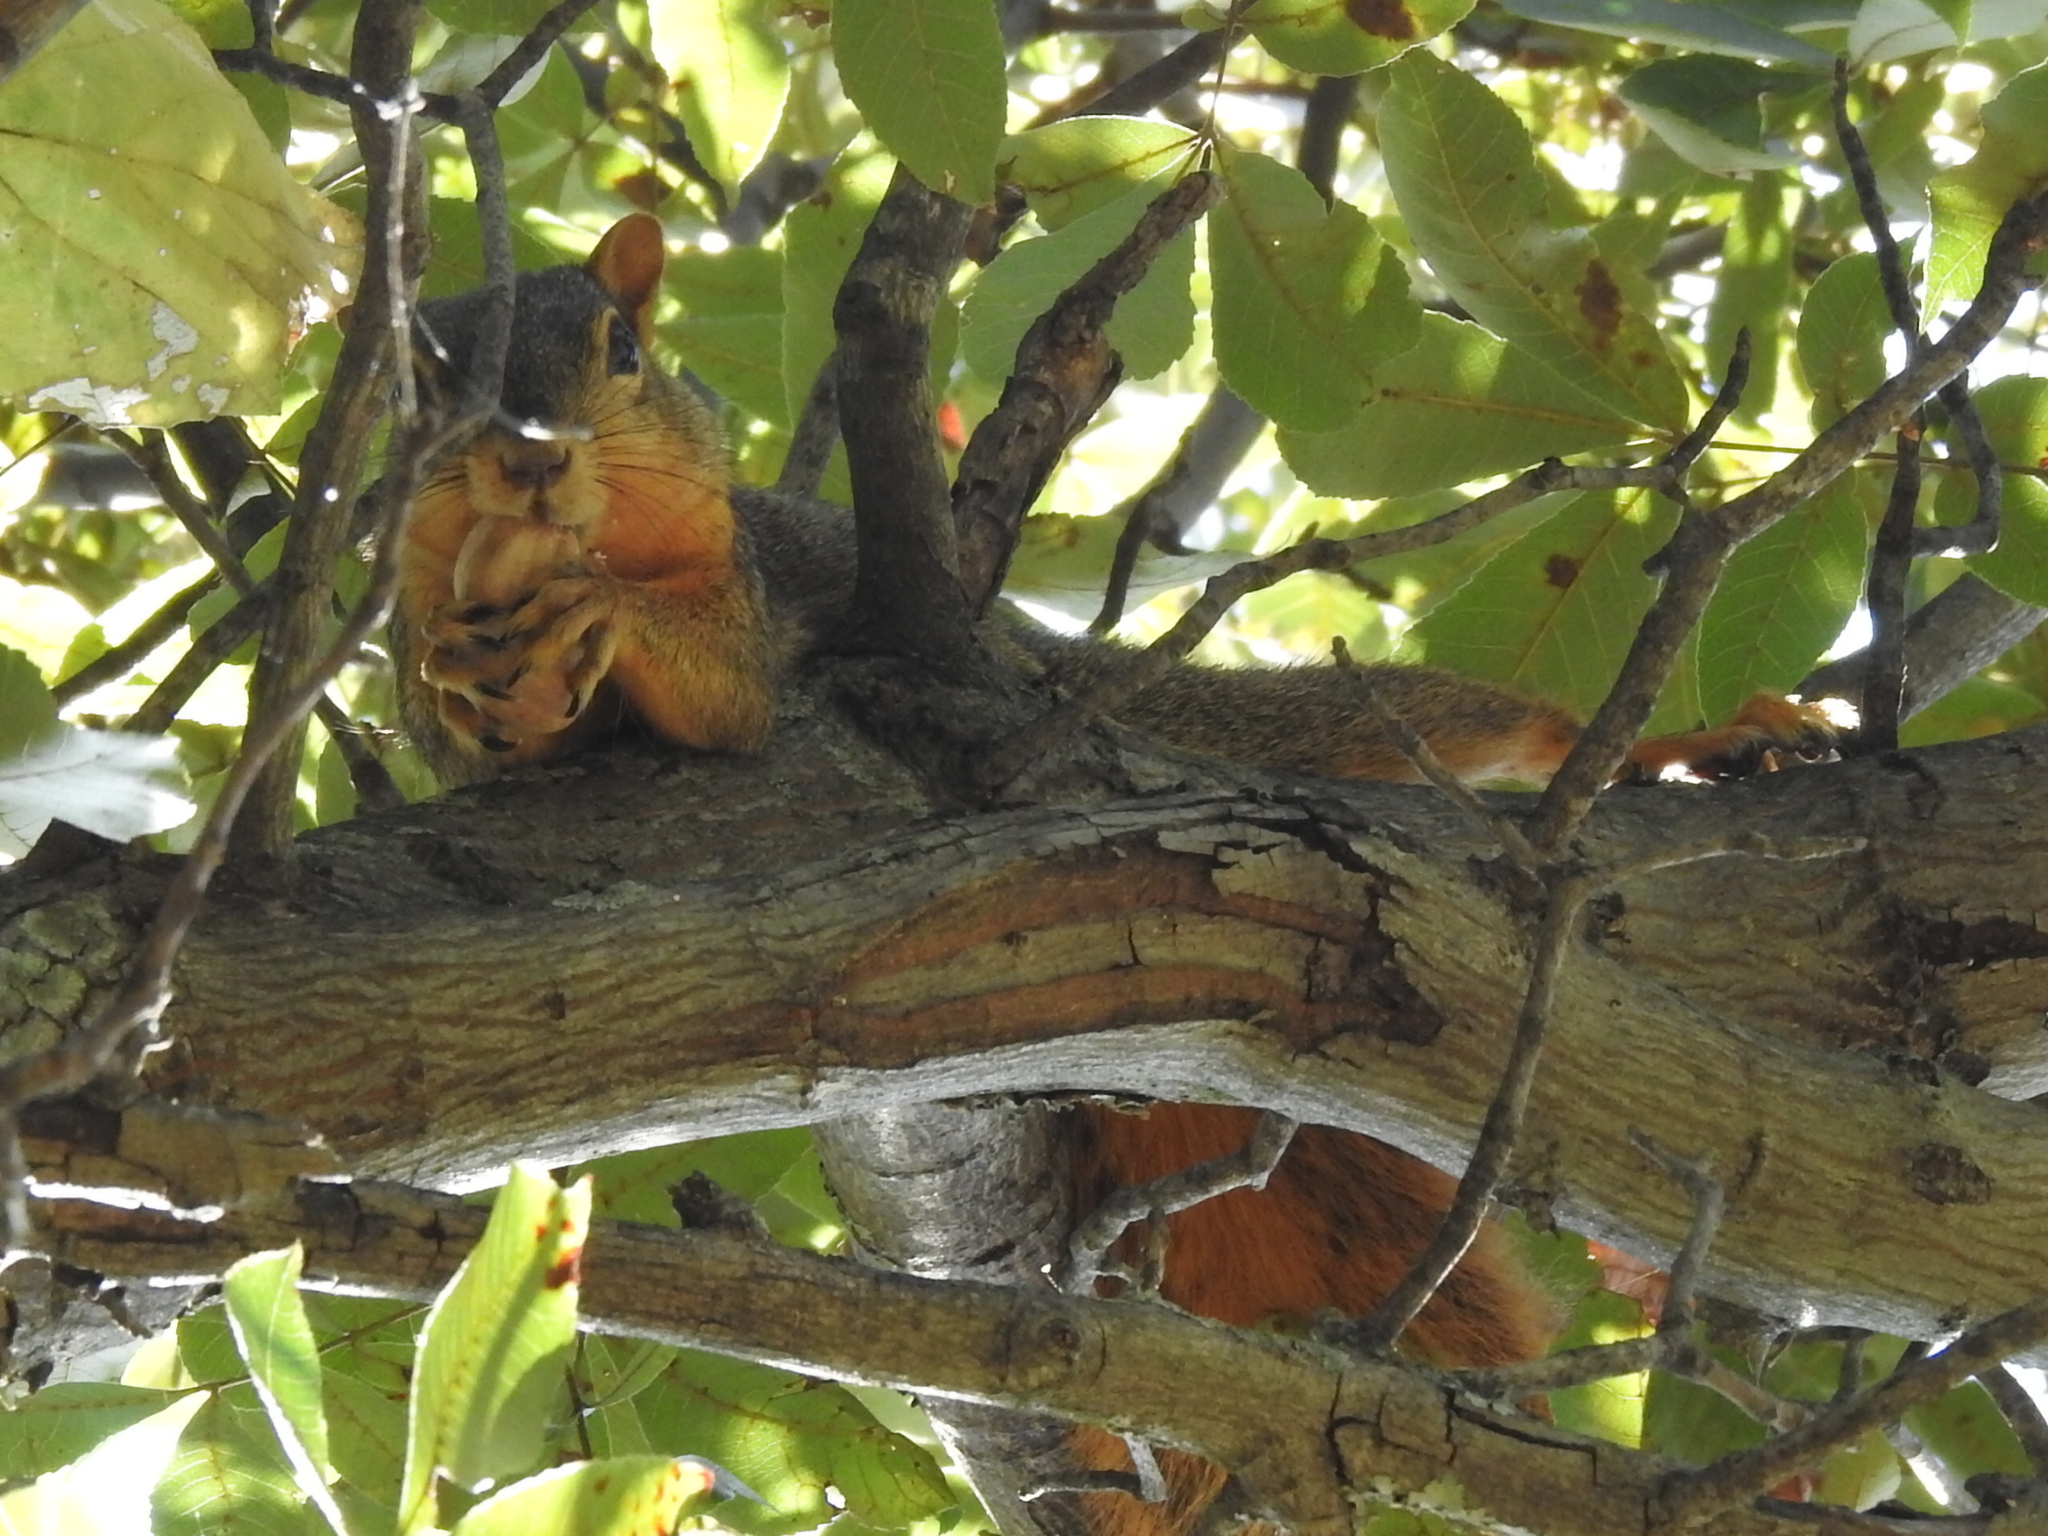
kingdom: Animalia
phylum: Chordata
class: Mammalia
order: Rodentia
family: Sciuridae
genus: Sciurus
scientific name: Sciurus niger
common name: Fox squirrel
